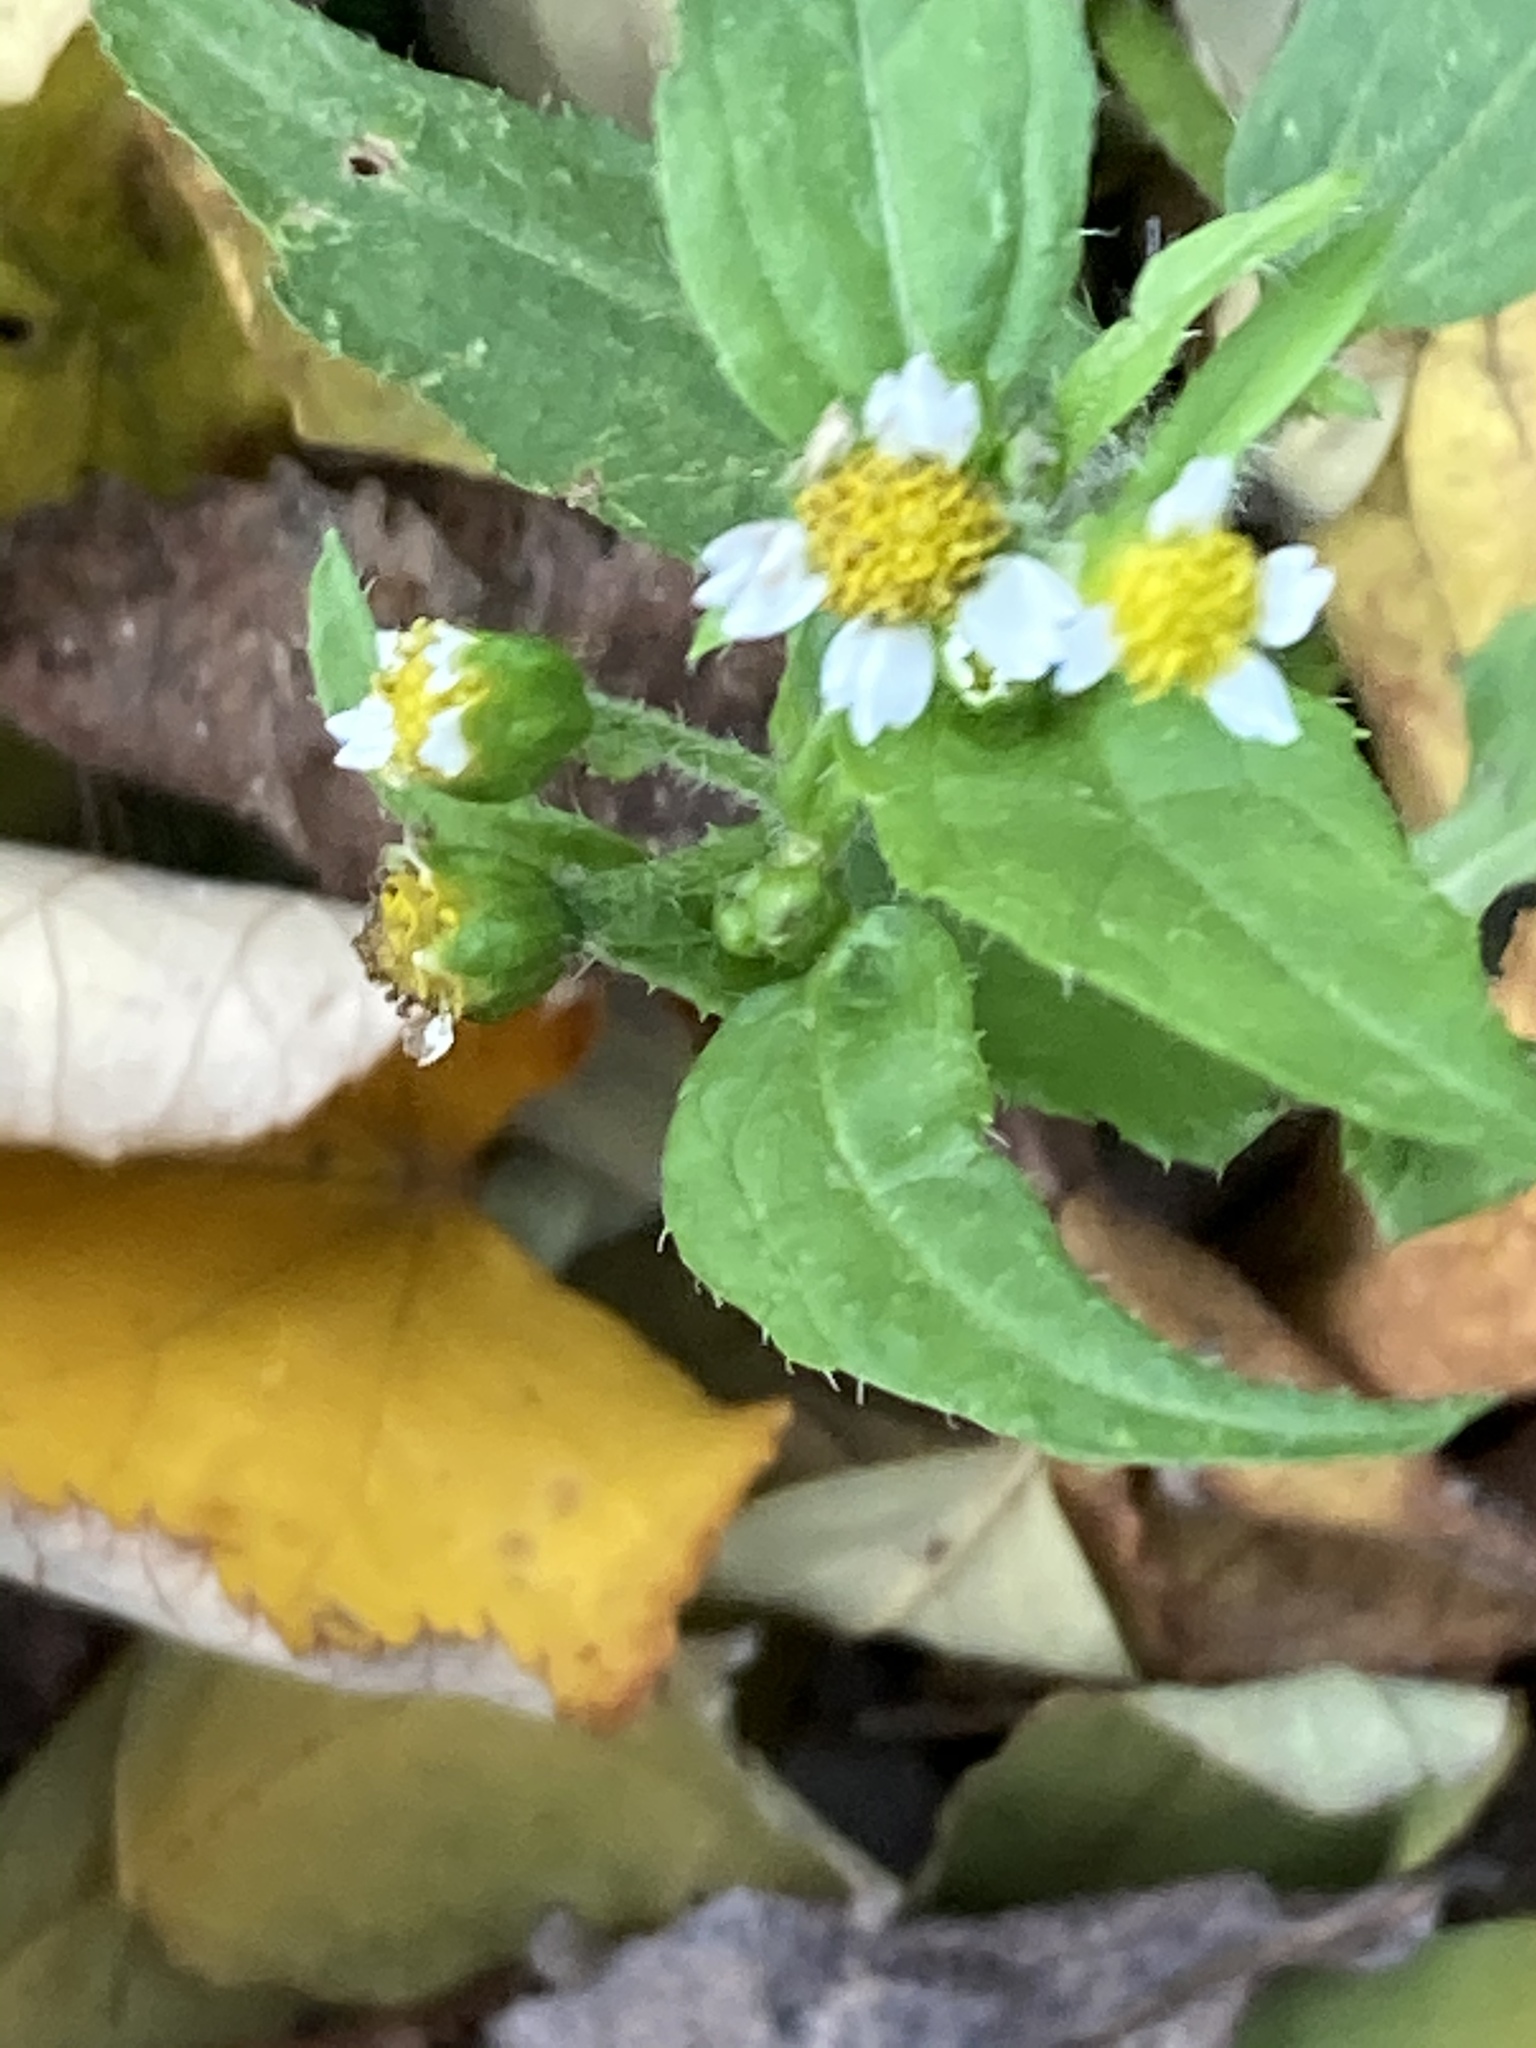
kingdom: Plantae
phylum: Tracheophyta
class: Magnoliopsida
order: Asterales
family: Asteraceae
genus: Galinsoga
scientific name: Galinsoga quadriradiata
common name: Shaggy soldier
